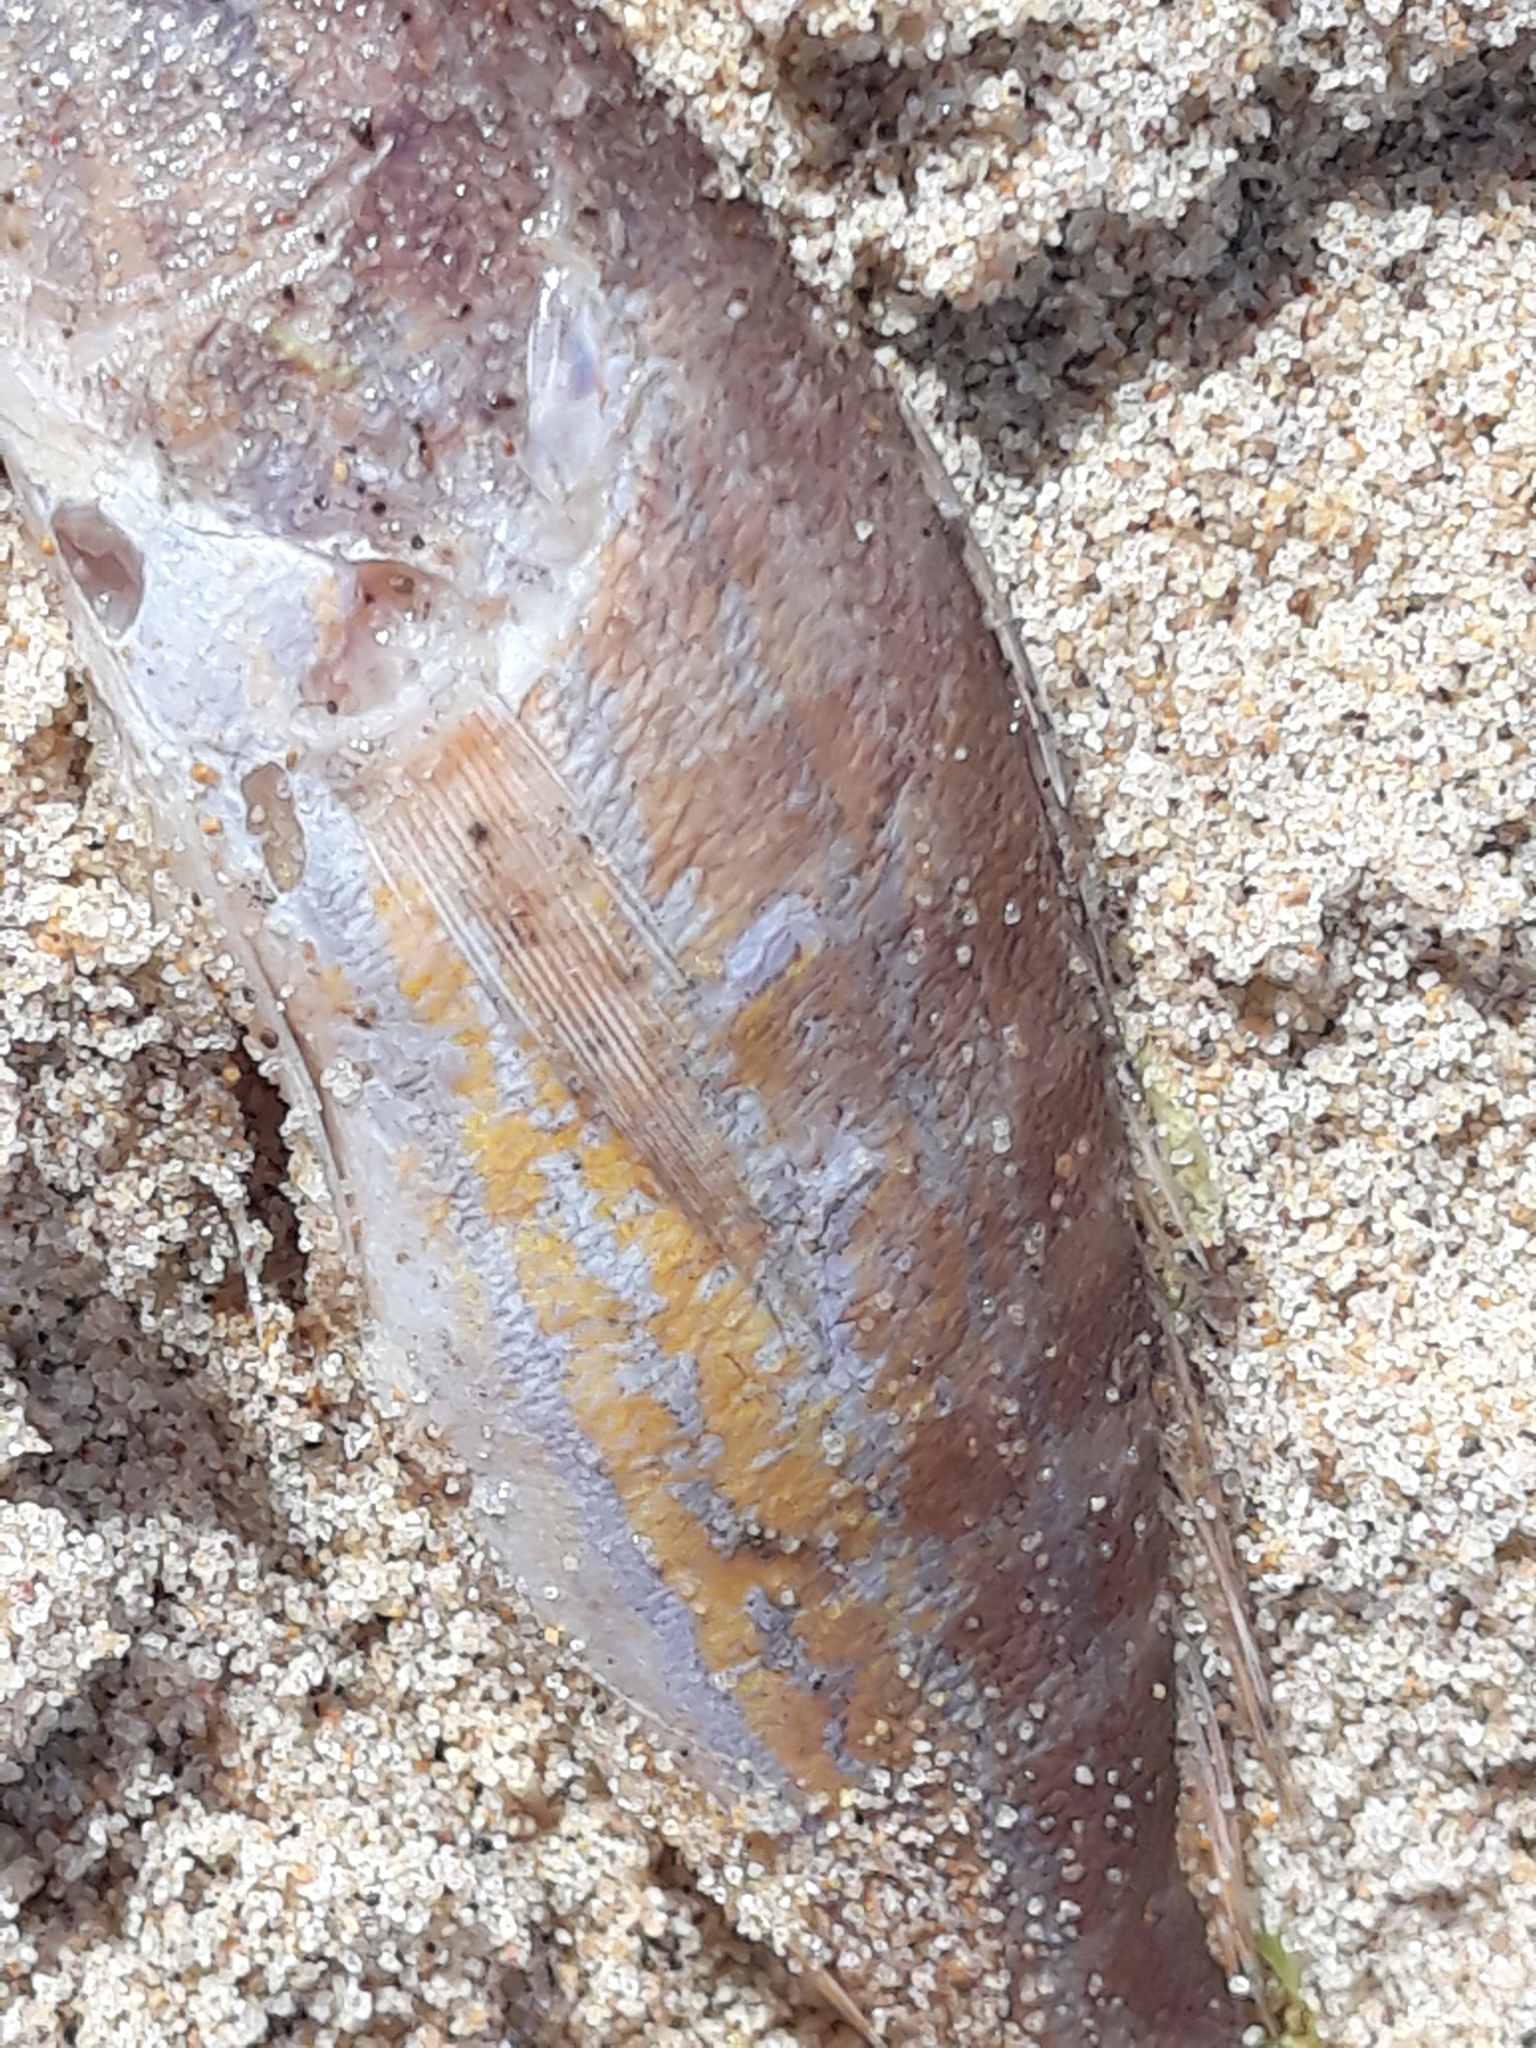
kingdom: Animalia
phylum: Chordata
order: Perciformes
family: Serranidae
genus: Serranus
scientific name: Serranus cabrilla
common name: Comber
